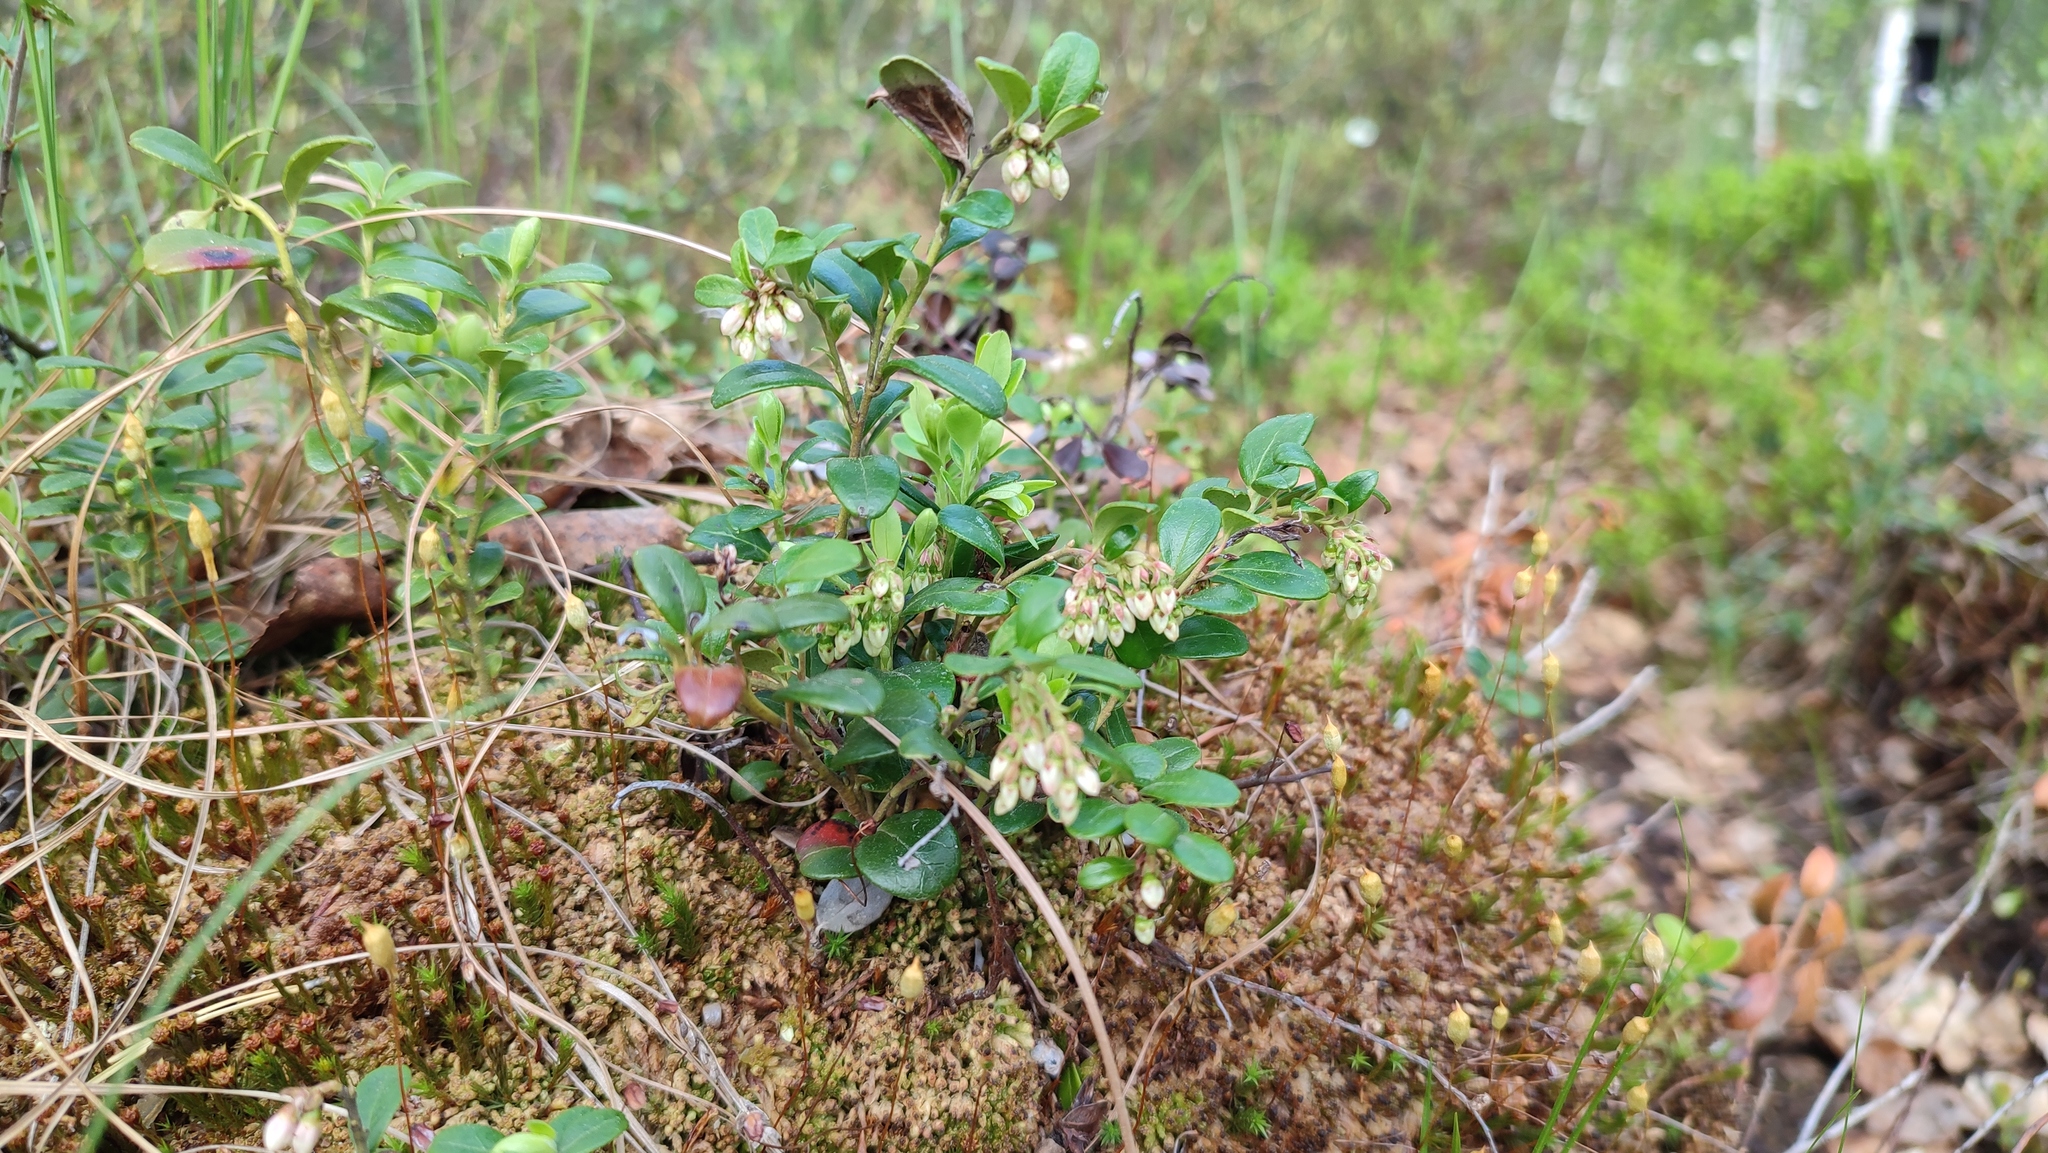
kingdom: Plantae
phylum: Tracheophyta
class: Magnoliopsida
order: Ericales
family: Ericaceae
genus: Vaccinium
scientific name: Vaccinium vitis-idaea
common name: Cowberry
